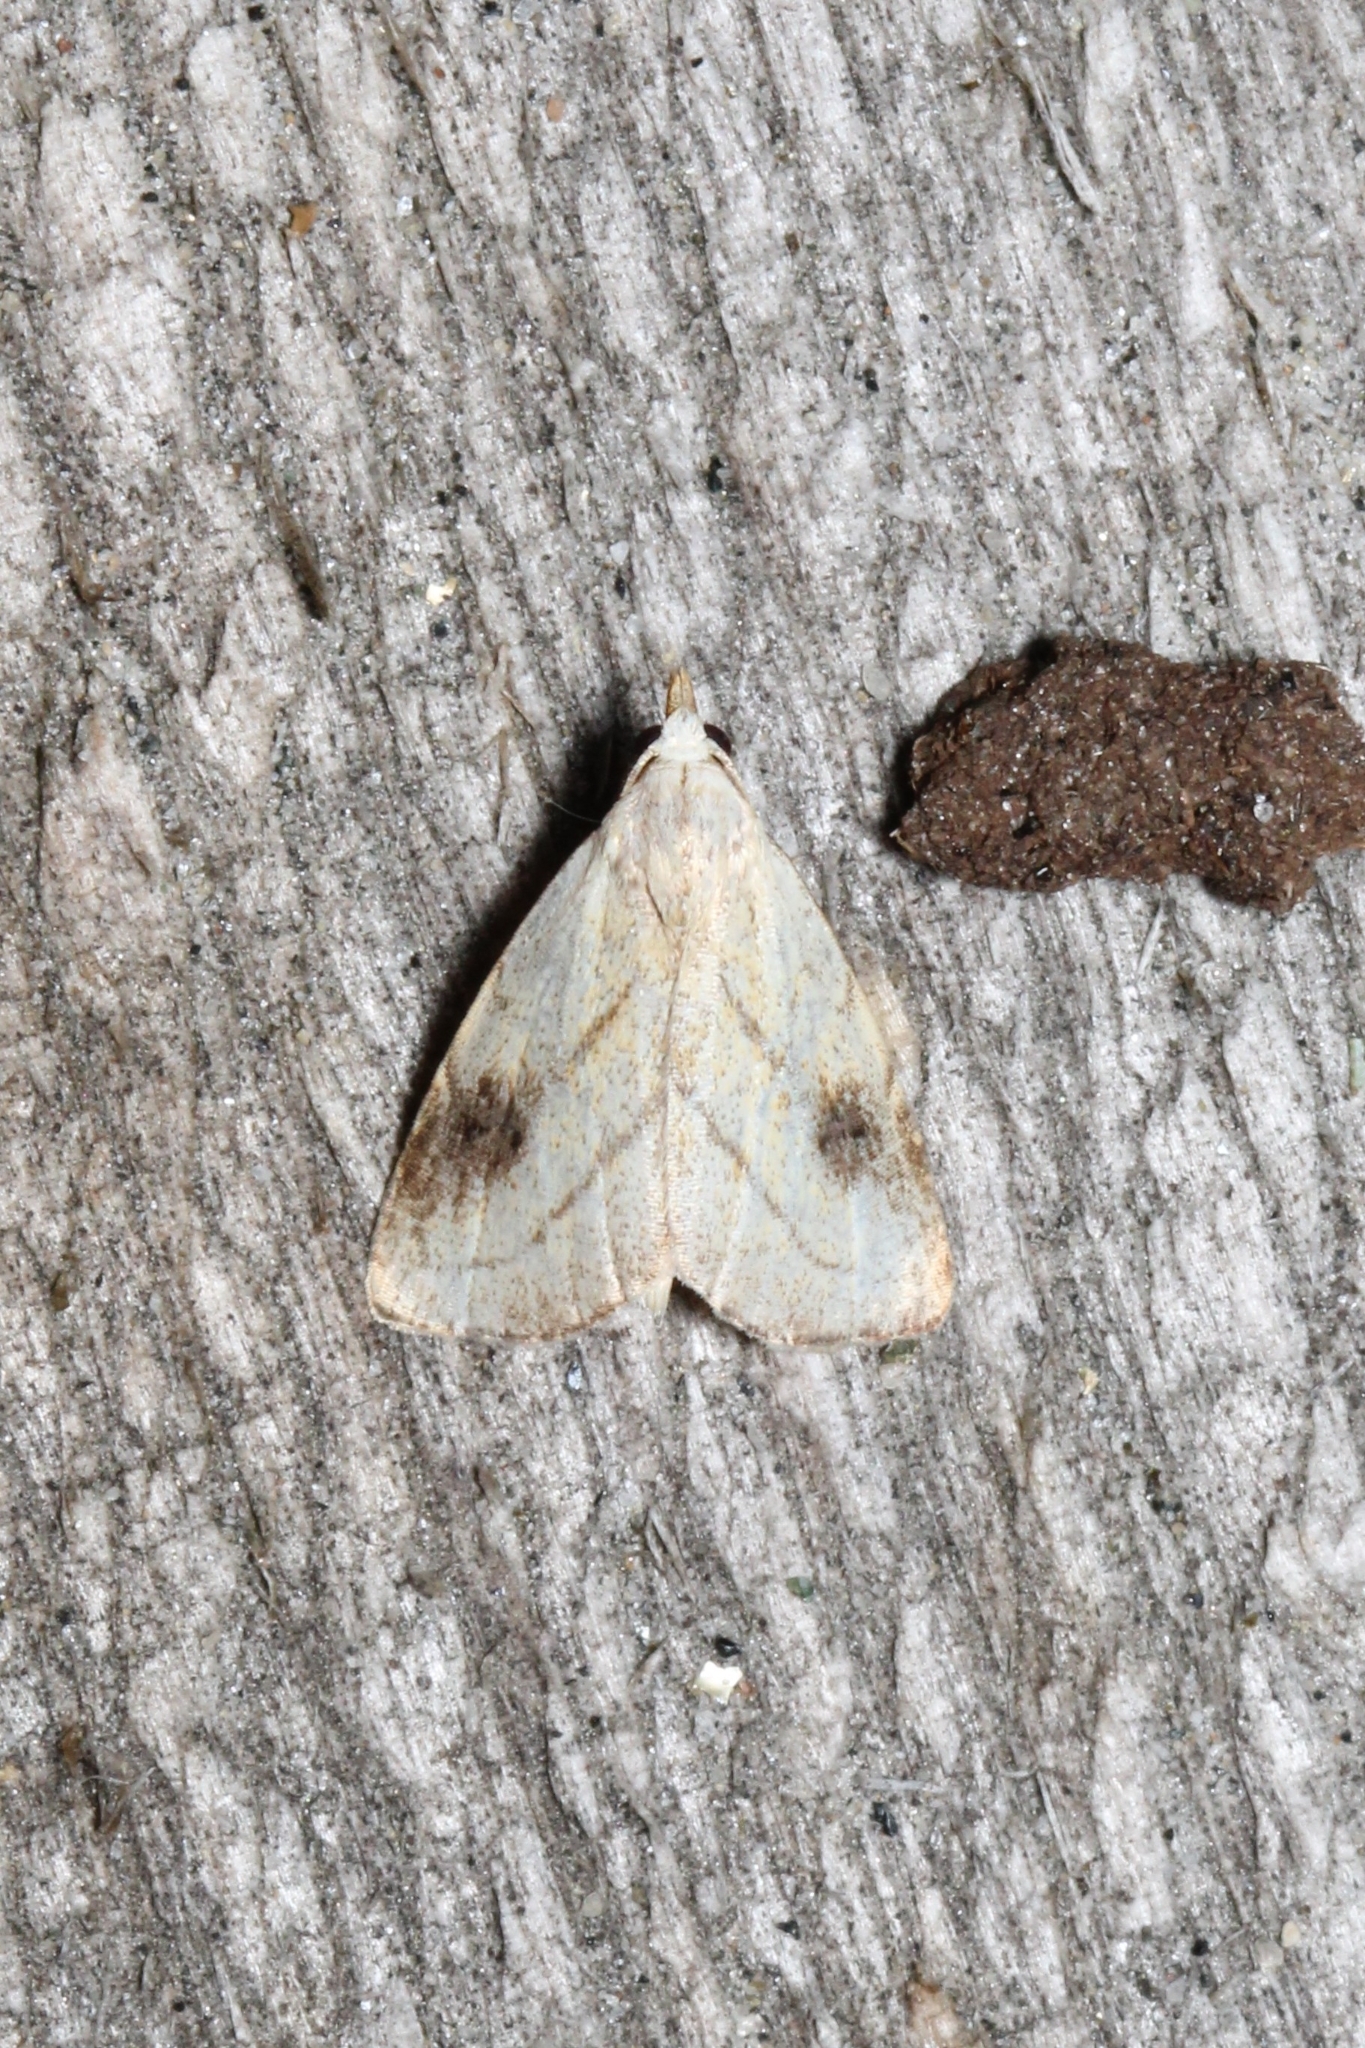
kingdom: Animalia
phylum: Arthropoda
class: Insecta
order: Lepidoptera
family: Erebidae
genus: Rivula
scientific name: Rivula propinqualis
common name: Spotted grass moth
